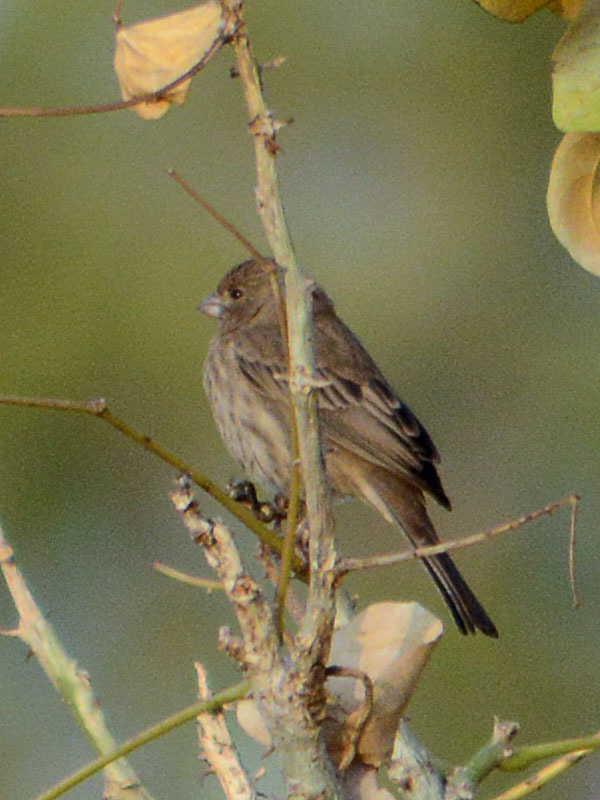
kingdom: Animalia
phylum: Chordata
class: Aves
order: Passeriformes
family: Fringillidae
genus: Haemorhous
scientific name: Haemorhous mexicanus
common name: House finch
